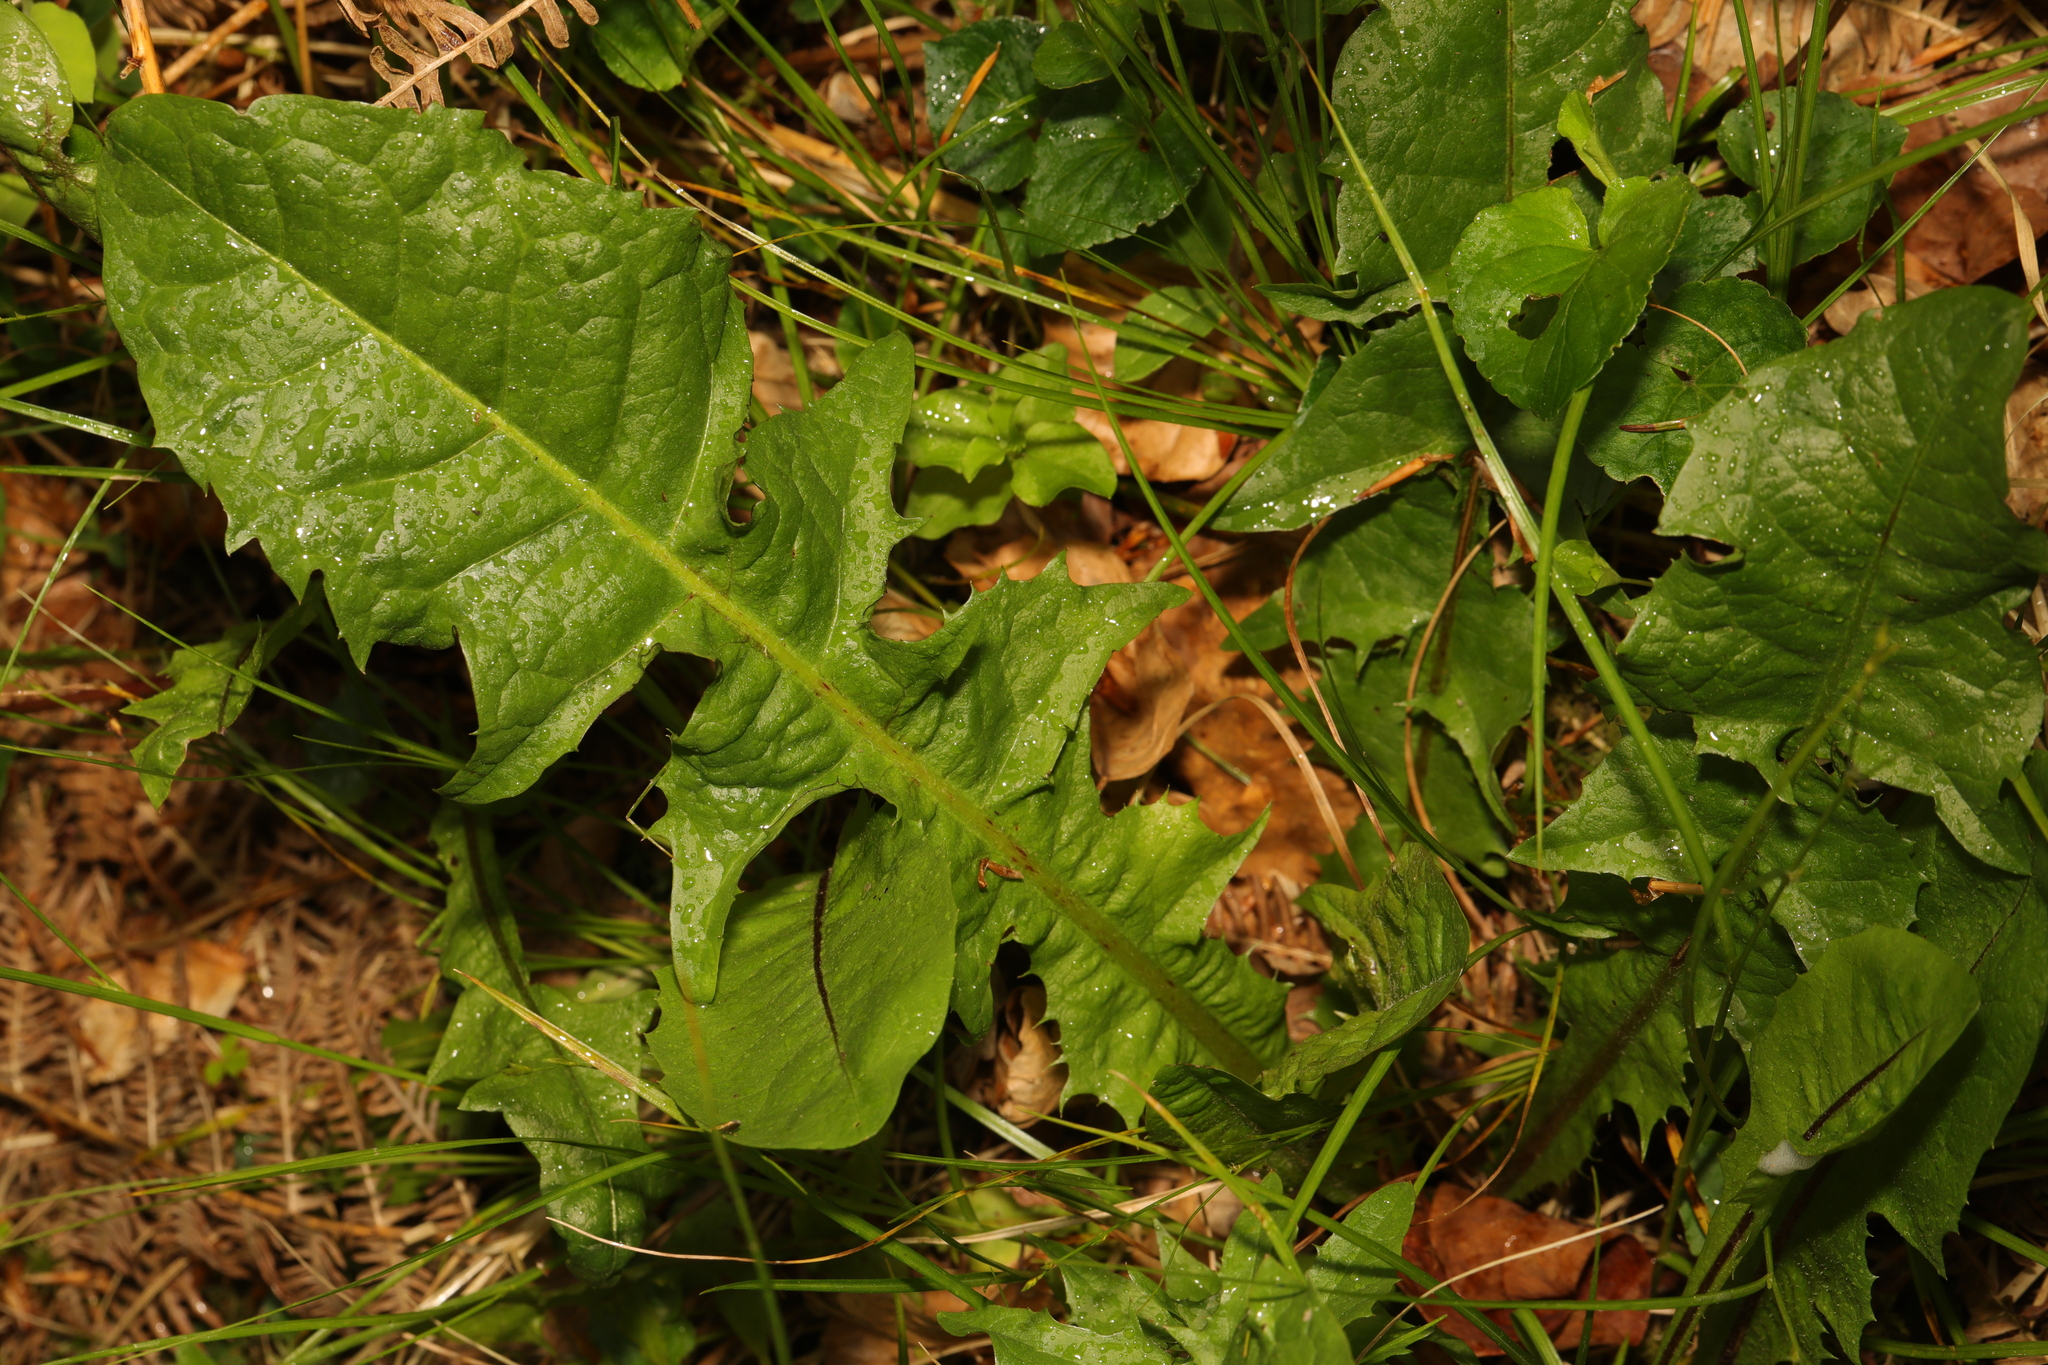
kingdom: Plantae
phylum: Tracheophyta
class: Magnoliopsida
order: Asterales
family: Asteraceae
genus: Taraxacum
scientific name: Taraxacum officinale
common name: Common dandelion
